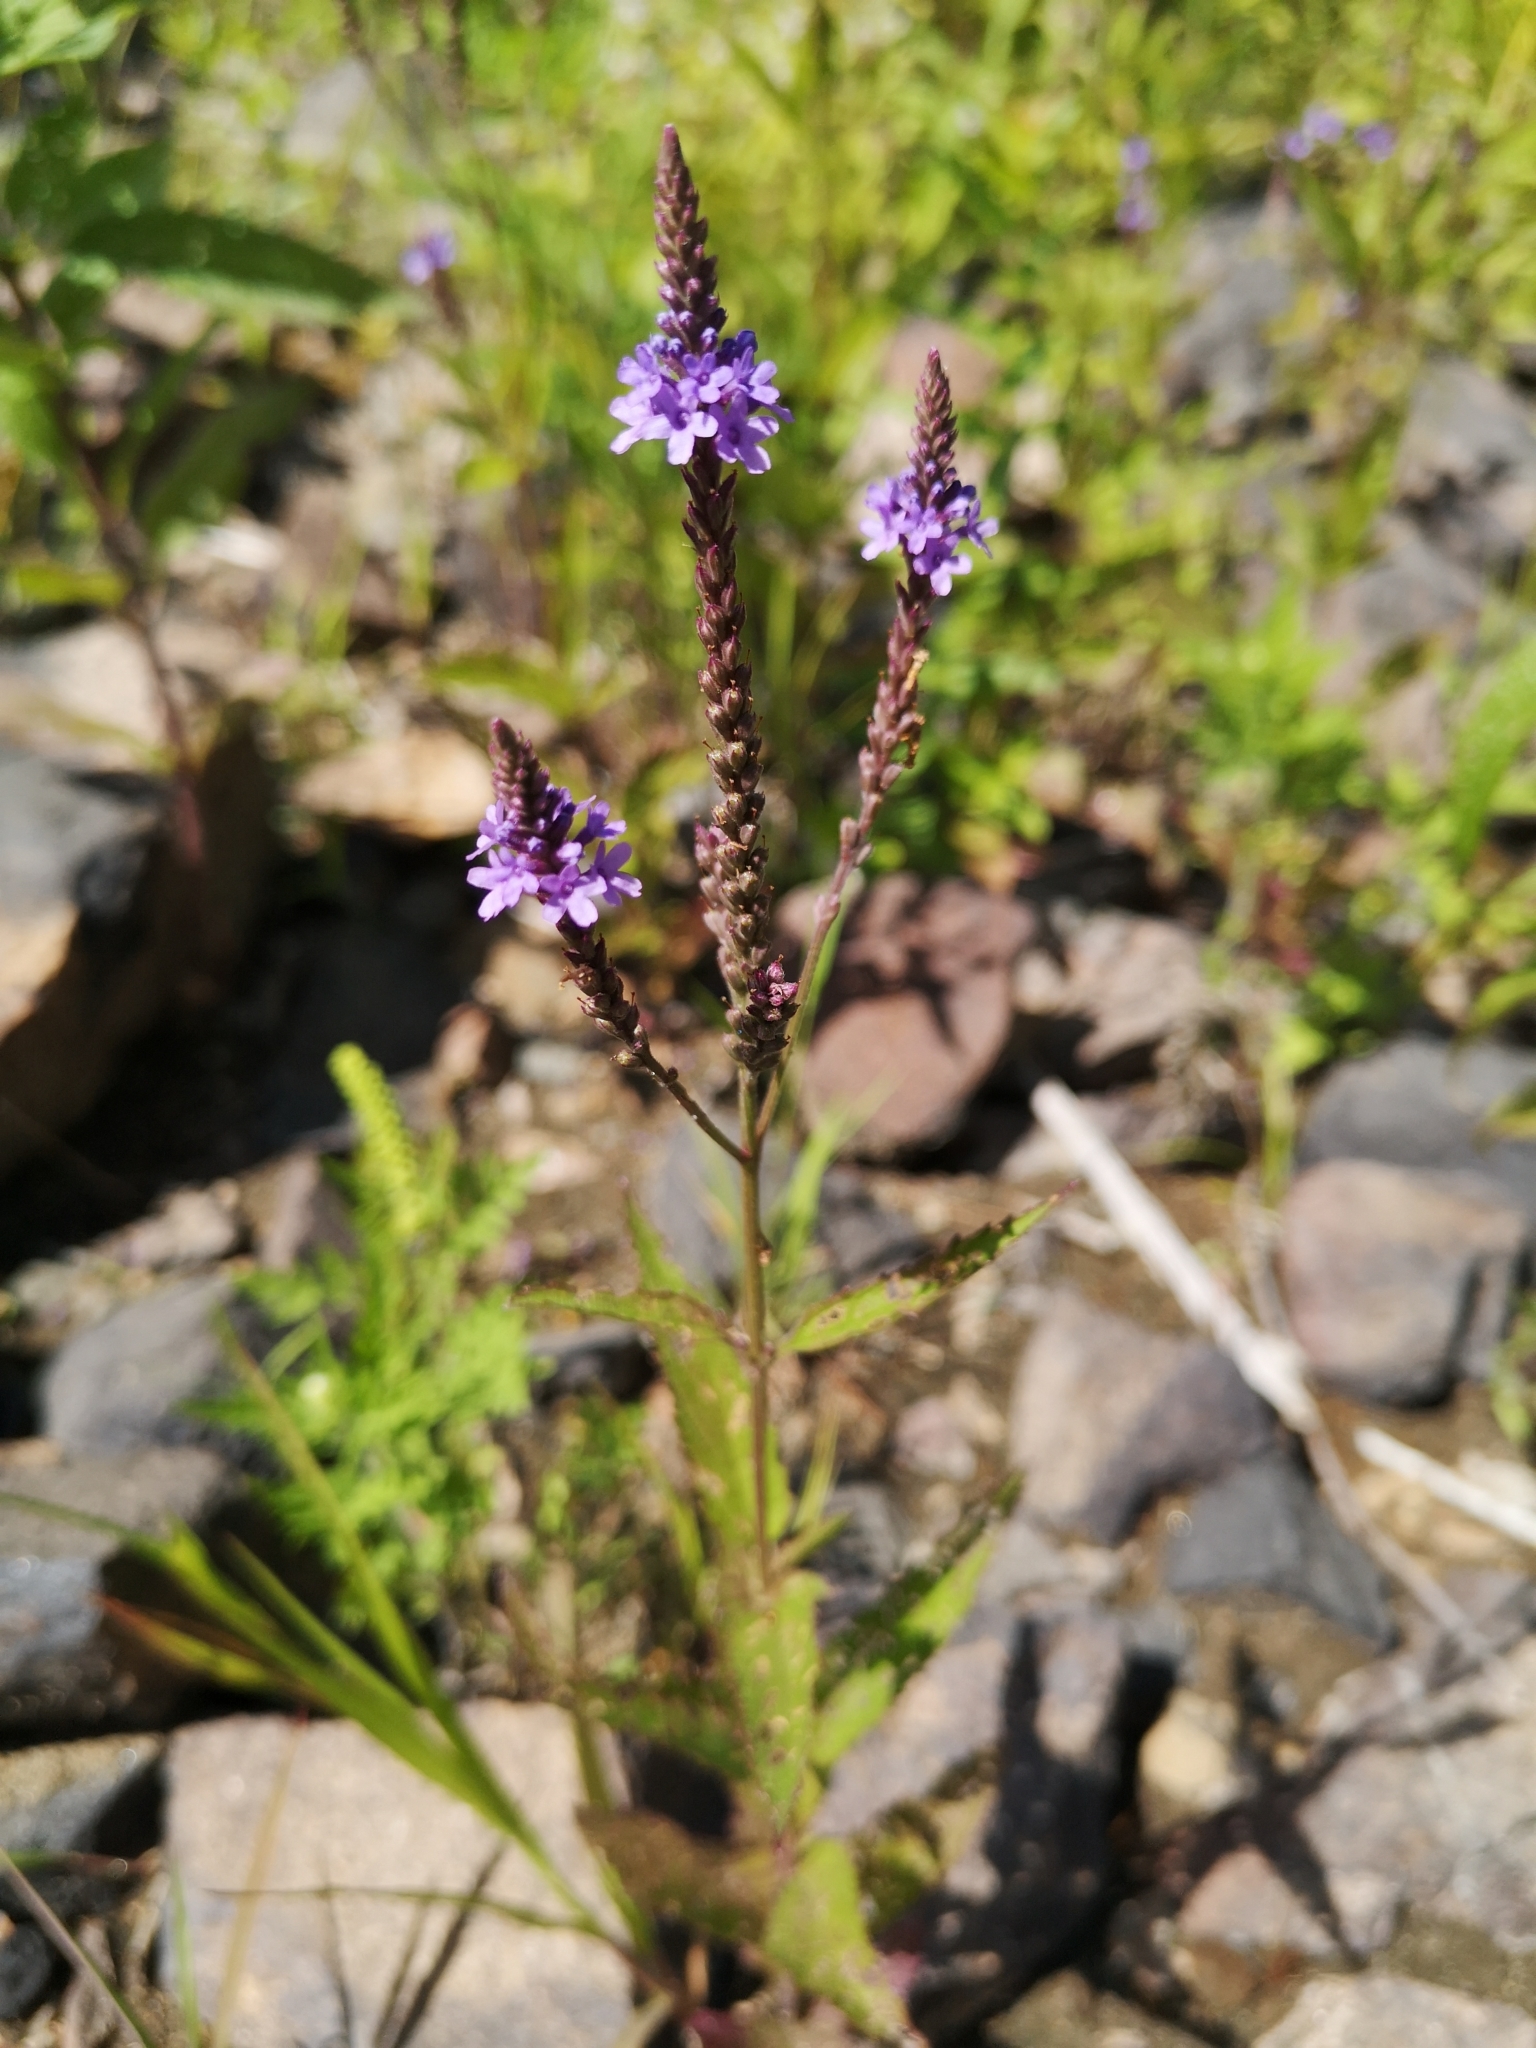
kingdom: Plantae
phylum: Tracheophyta
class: Magnoliopsida
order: Lamiales
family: Verbenaceae
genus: Verbena
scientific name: Verbena hastata
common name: American blue vervain
